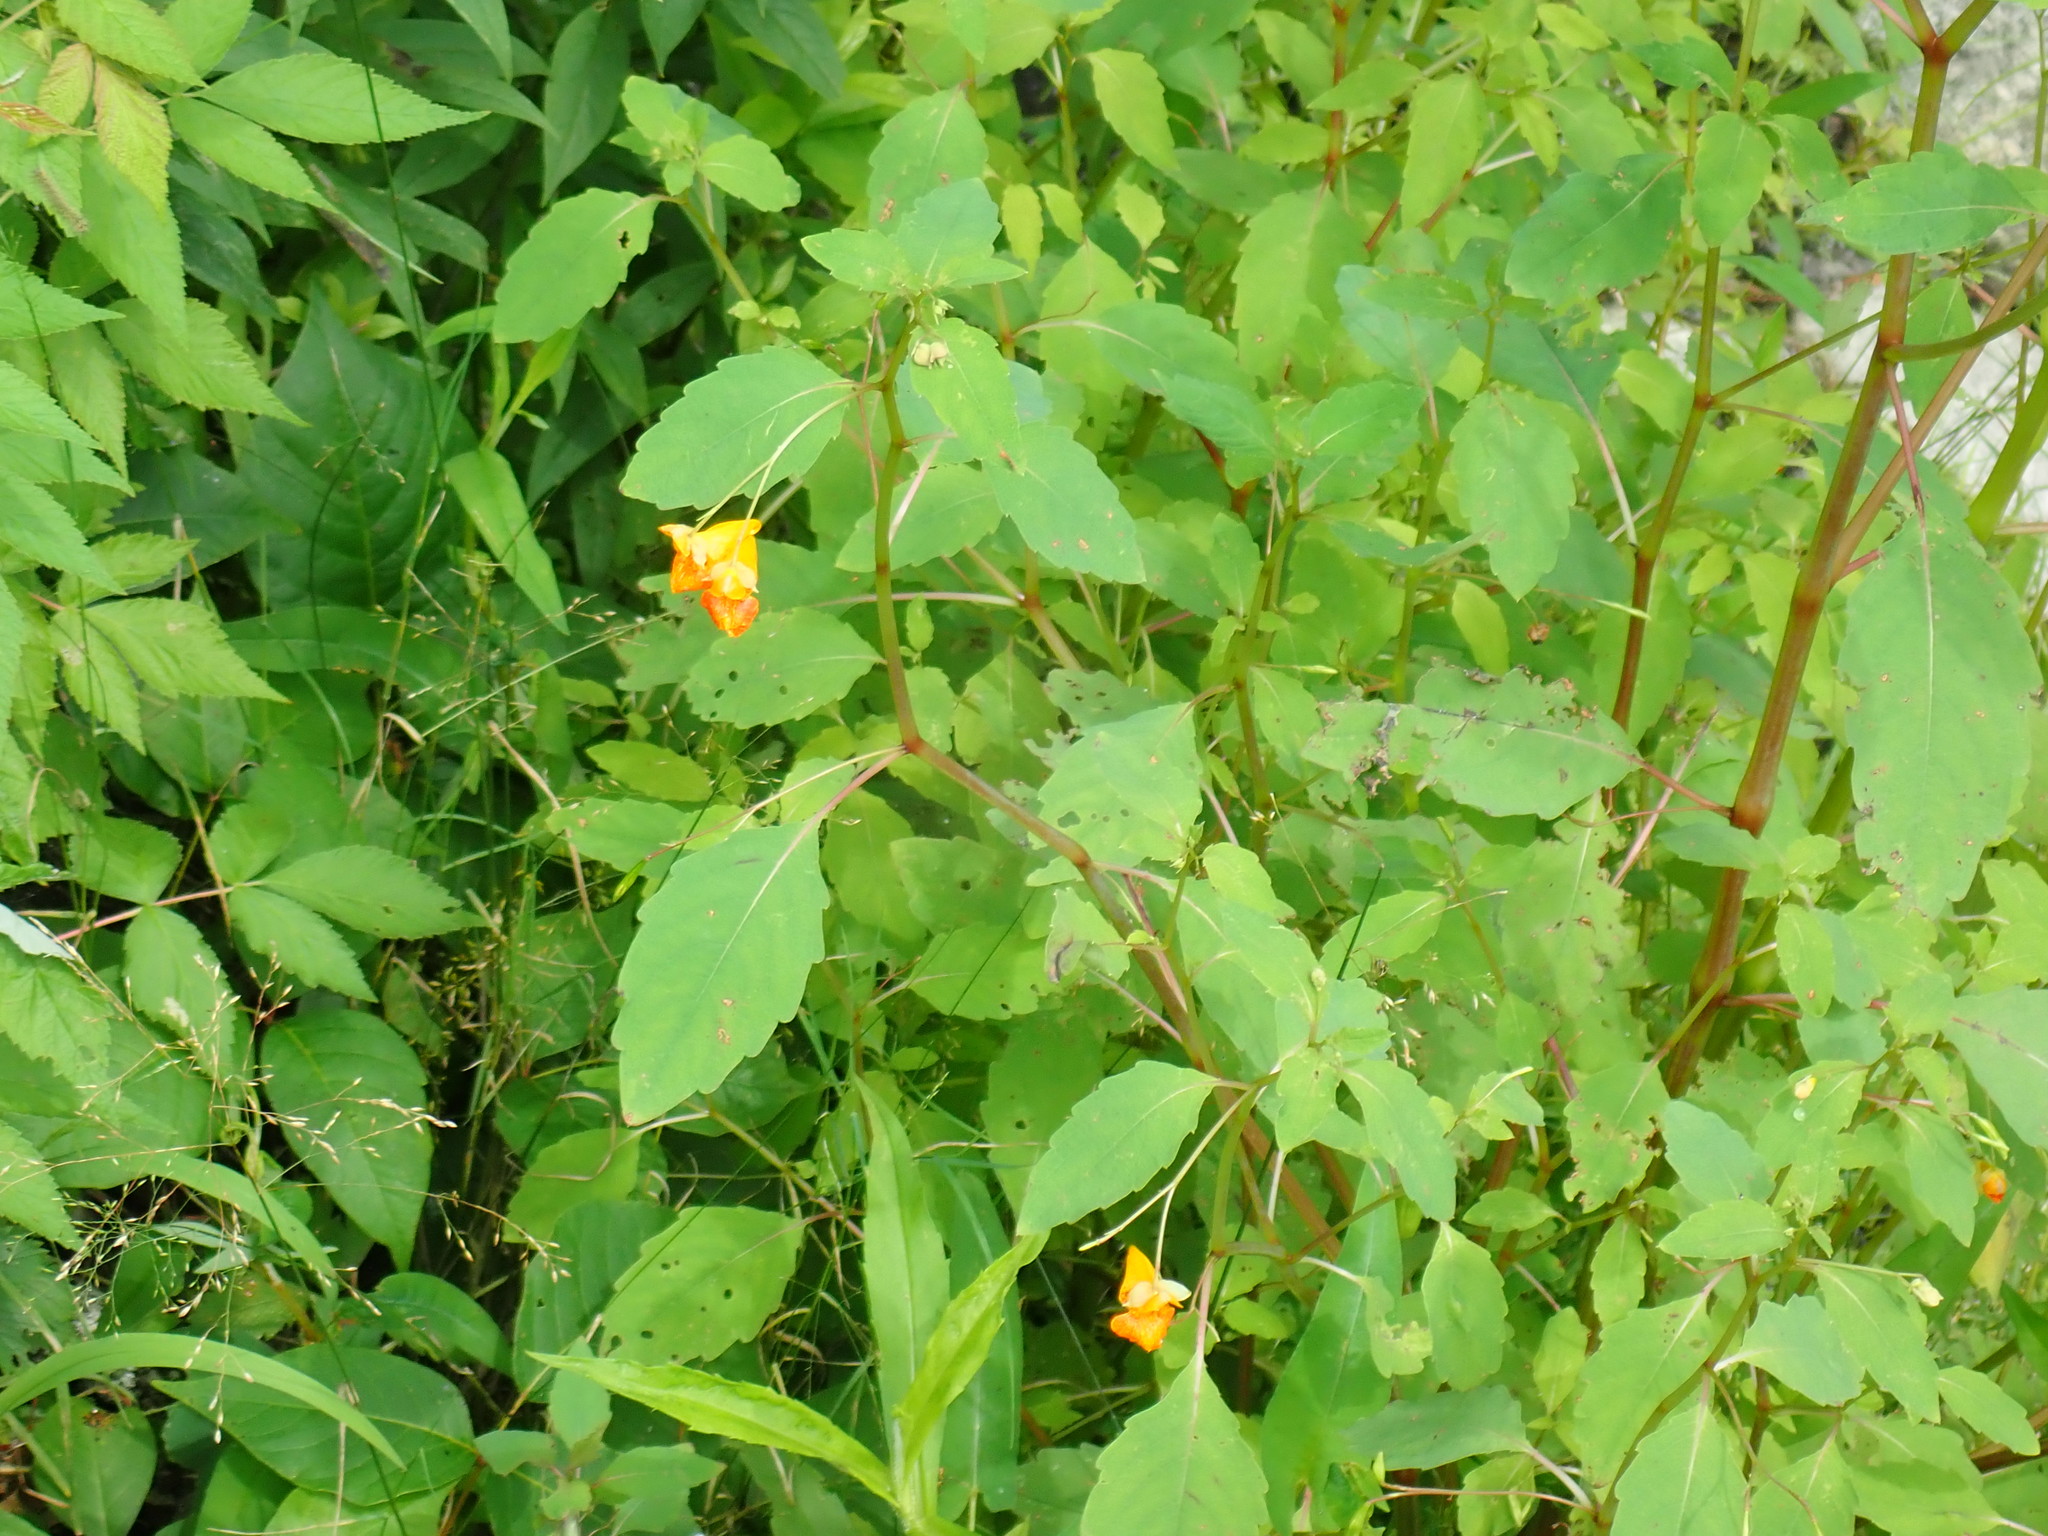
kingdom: Plantae
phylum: Tracheophyta
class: Magnoliopsida
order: Ericales
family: Balsaminaceae
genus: Impatiens
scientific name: Impatiens capensis
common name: Orange balsam
